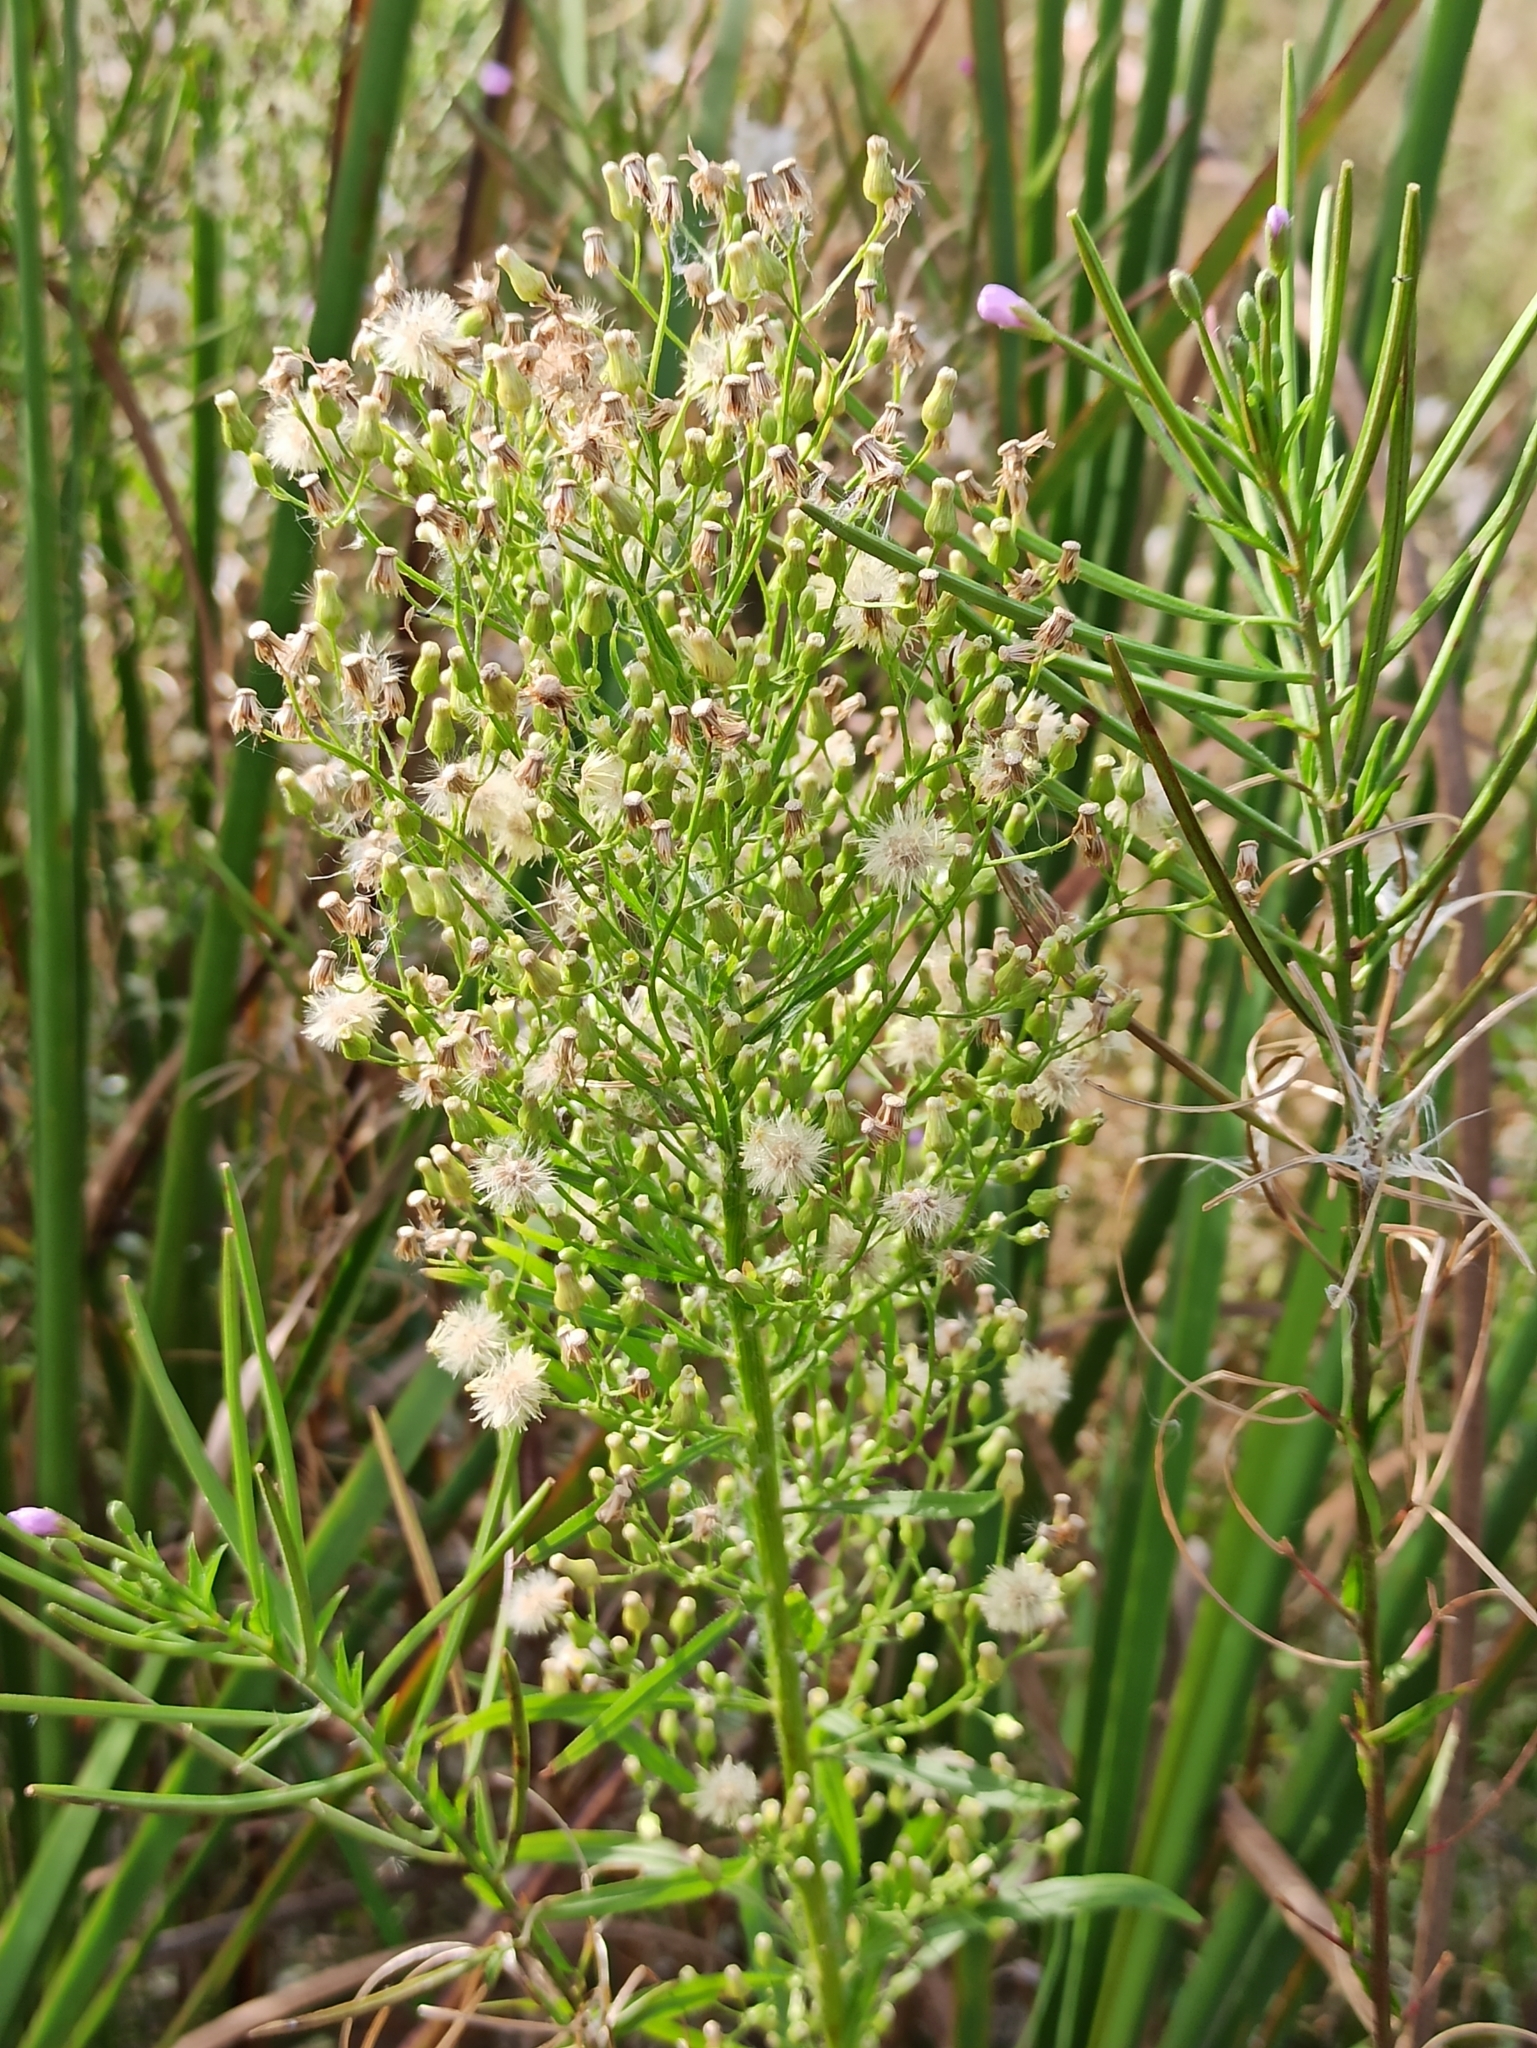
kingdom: Plantae
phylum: Tracheophyta
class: Magnoliopsida
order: Asterales
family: Asteraceae
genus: Erigeron
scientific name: Erigeron canadensis
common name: Canadian fleabane
